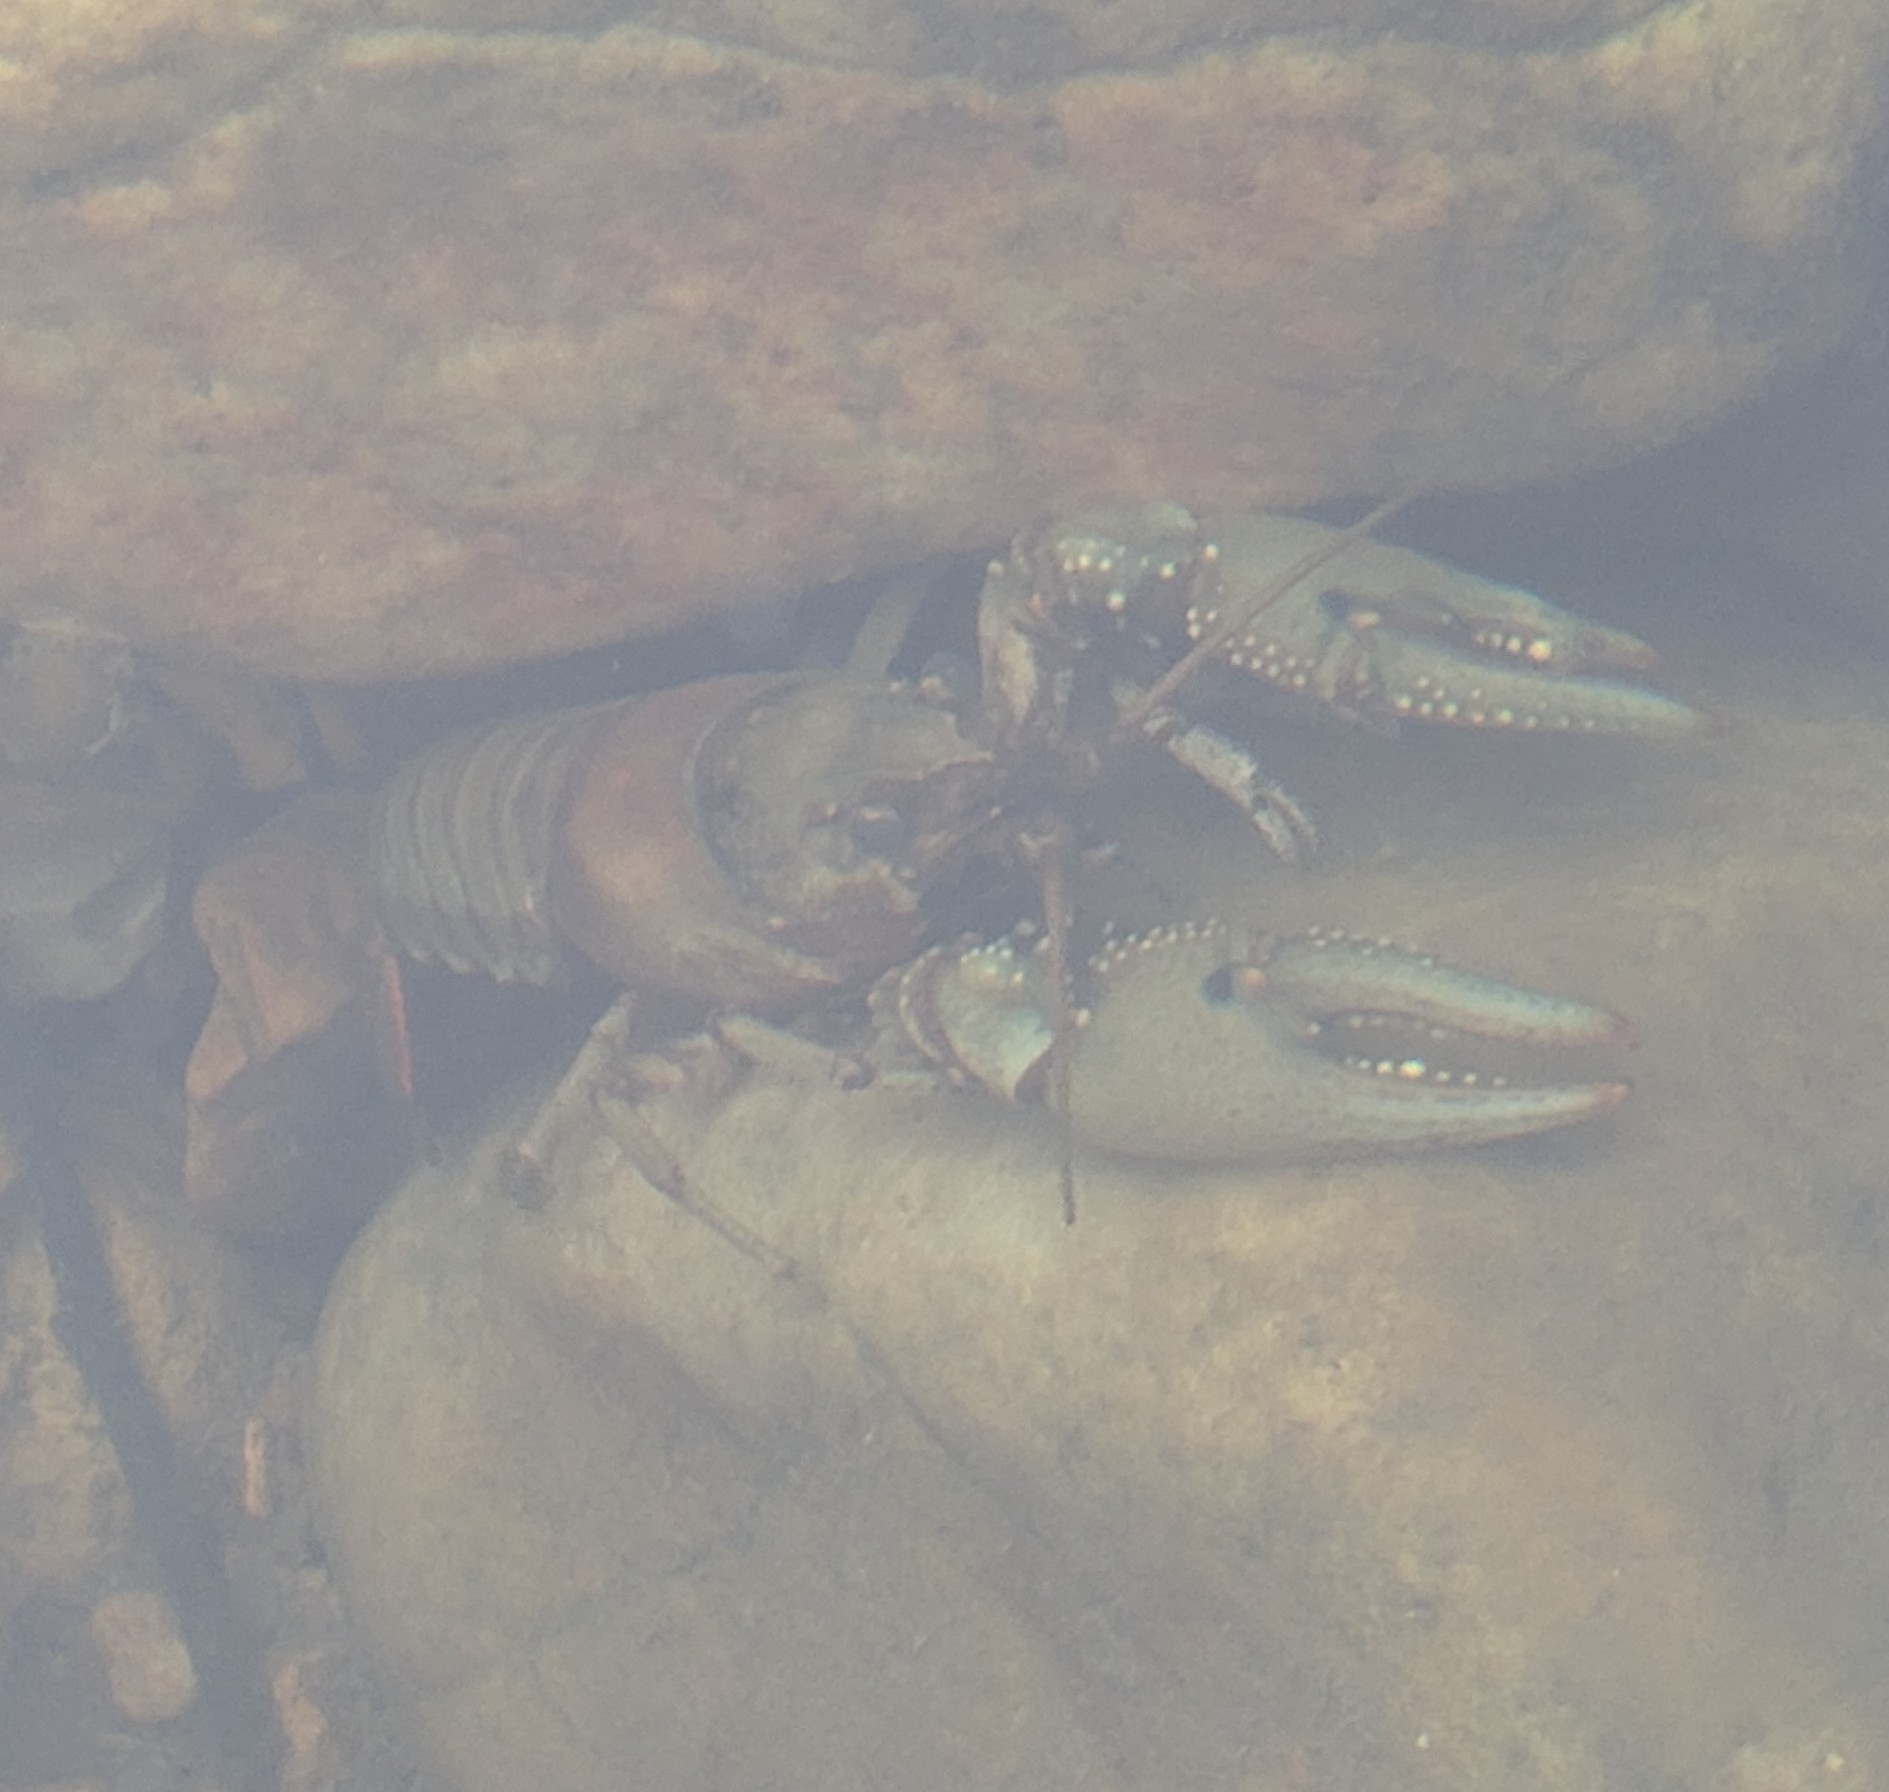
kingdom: Animalia
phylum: Arthropoda
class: Malacostraca
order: Decapoda
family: Cambaridae
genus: Faxonius
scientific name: Faxonius punctimanus
